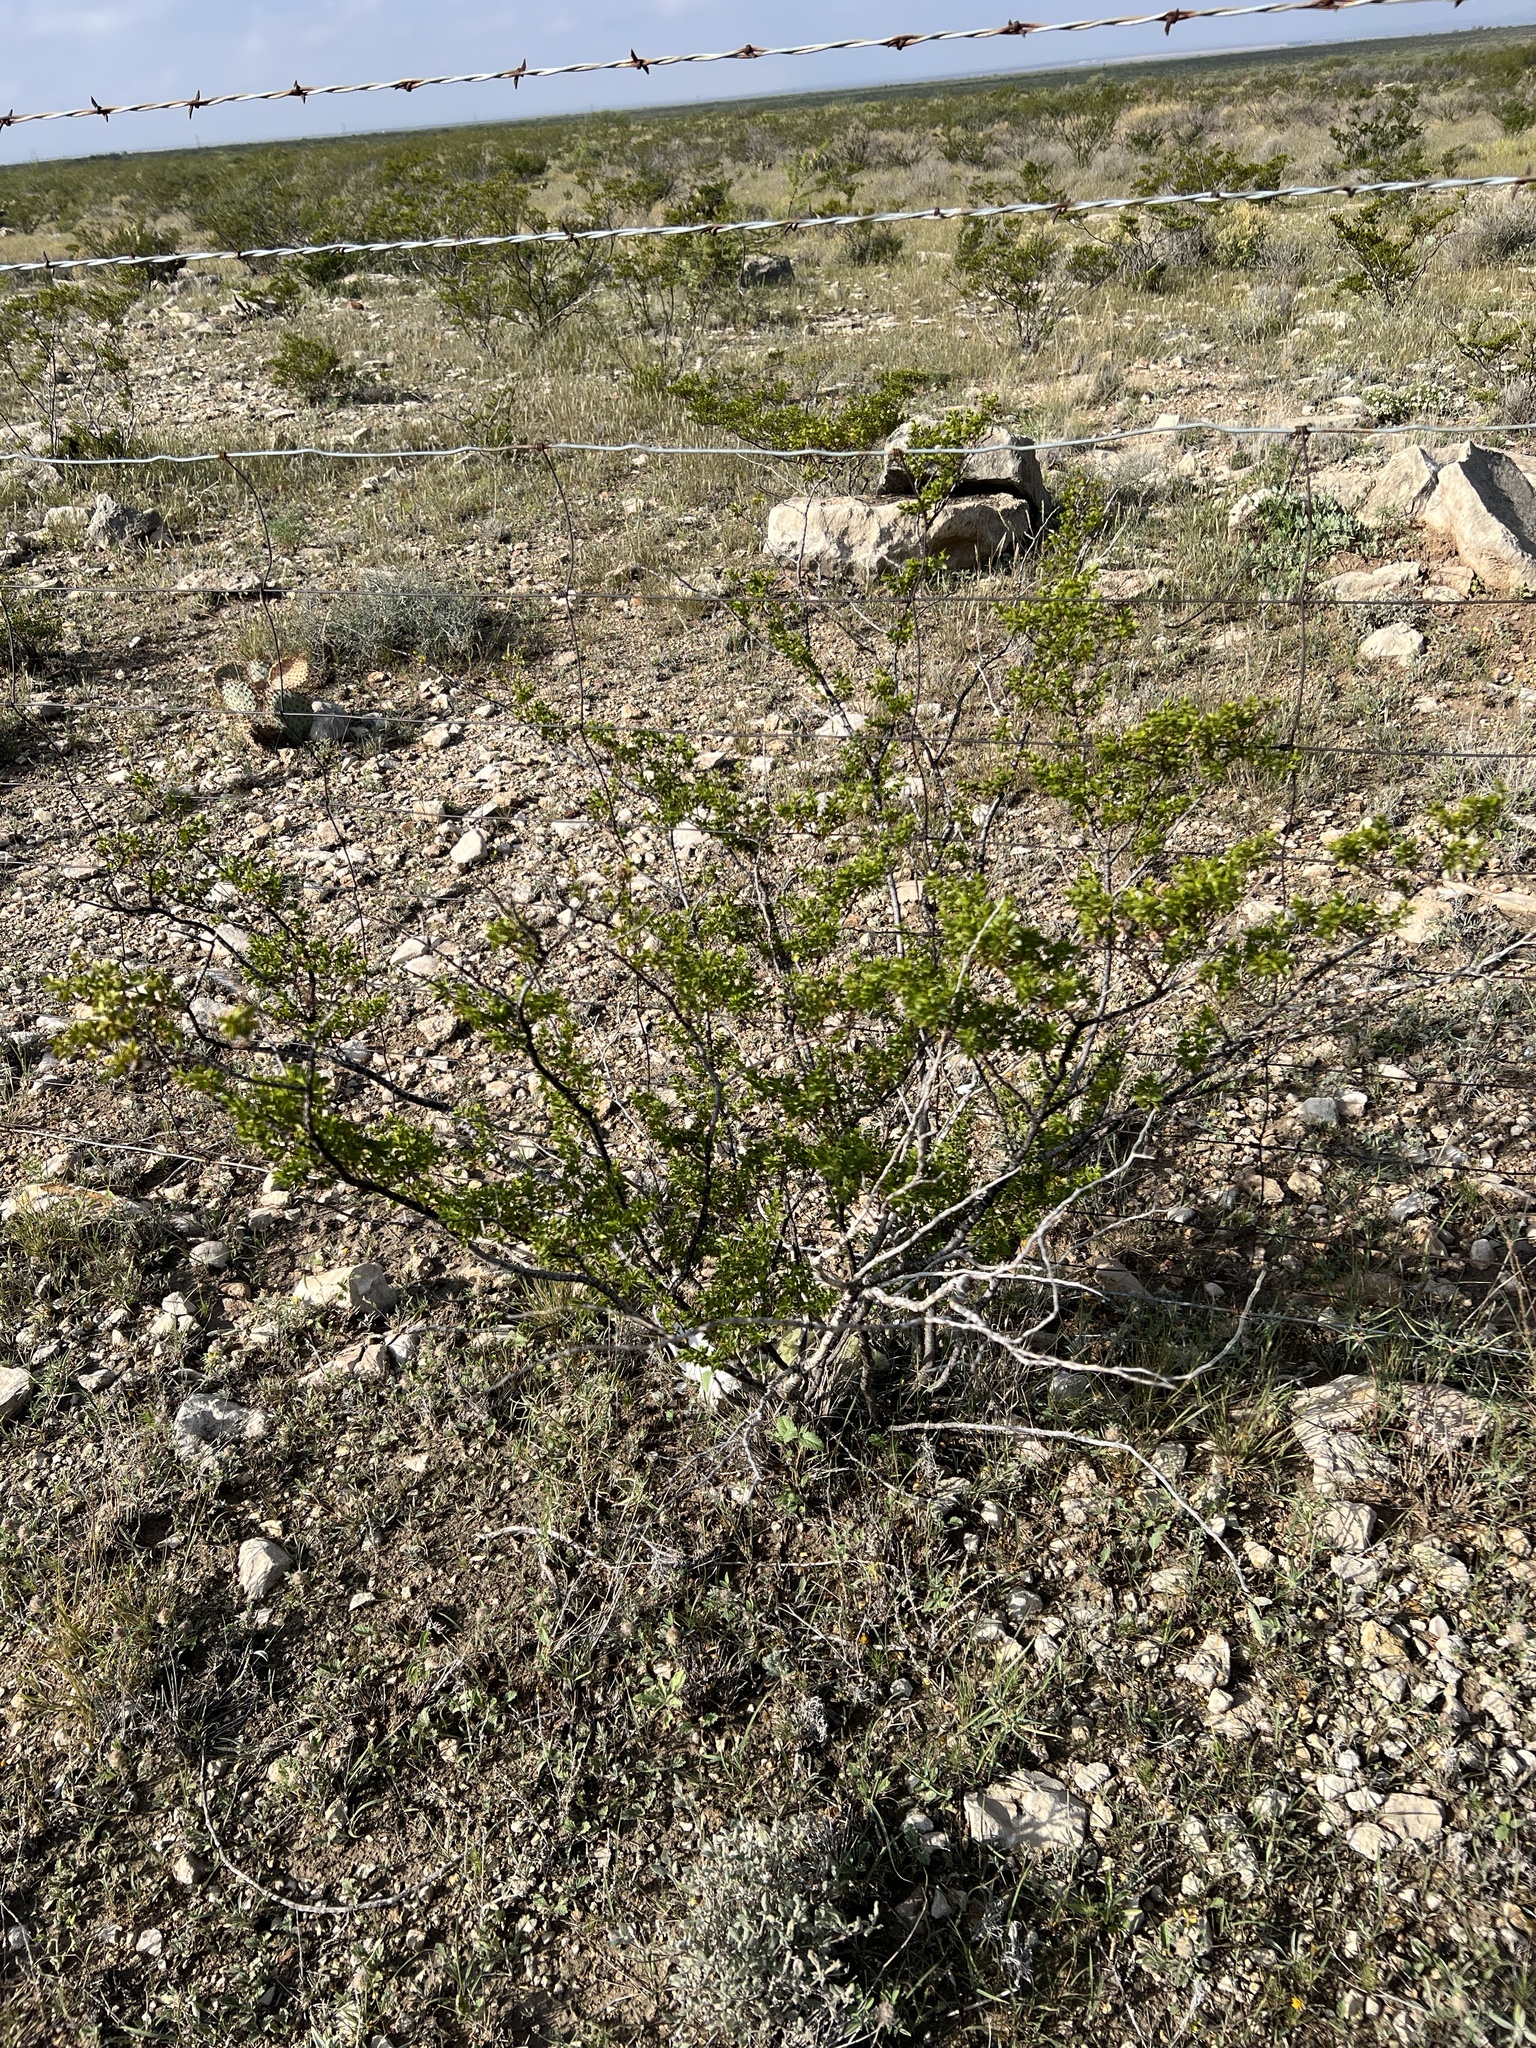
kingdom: Plantae
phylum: Tracheophyta
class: Magnoliopsida
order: Zygophyllales
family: Zygophyllaceae
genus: Larrea
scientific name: Larrea tridentata
